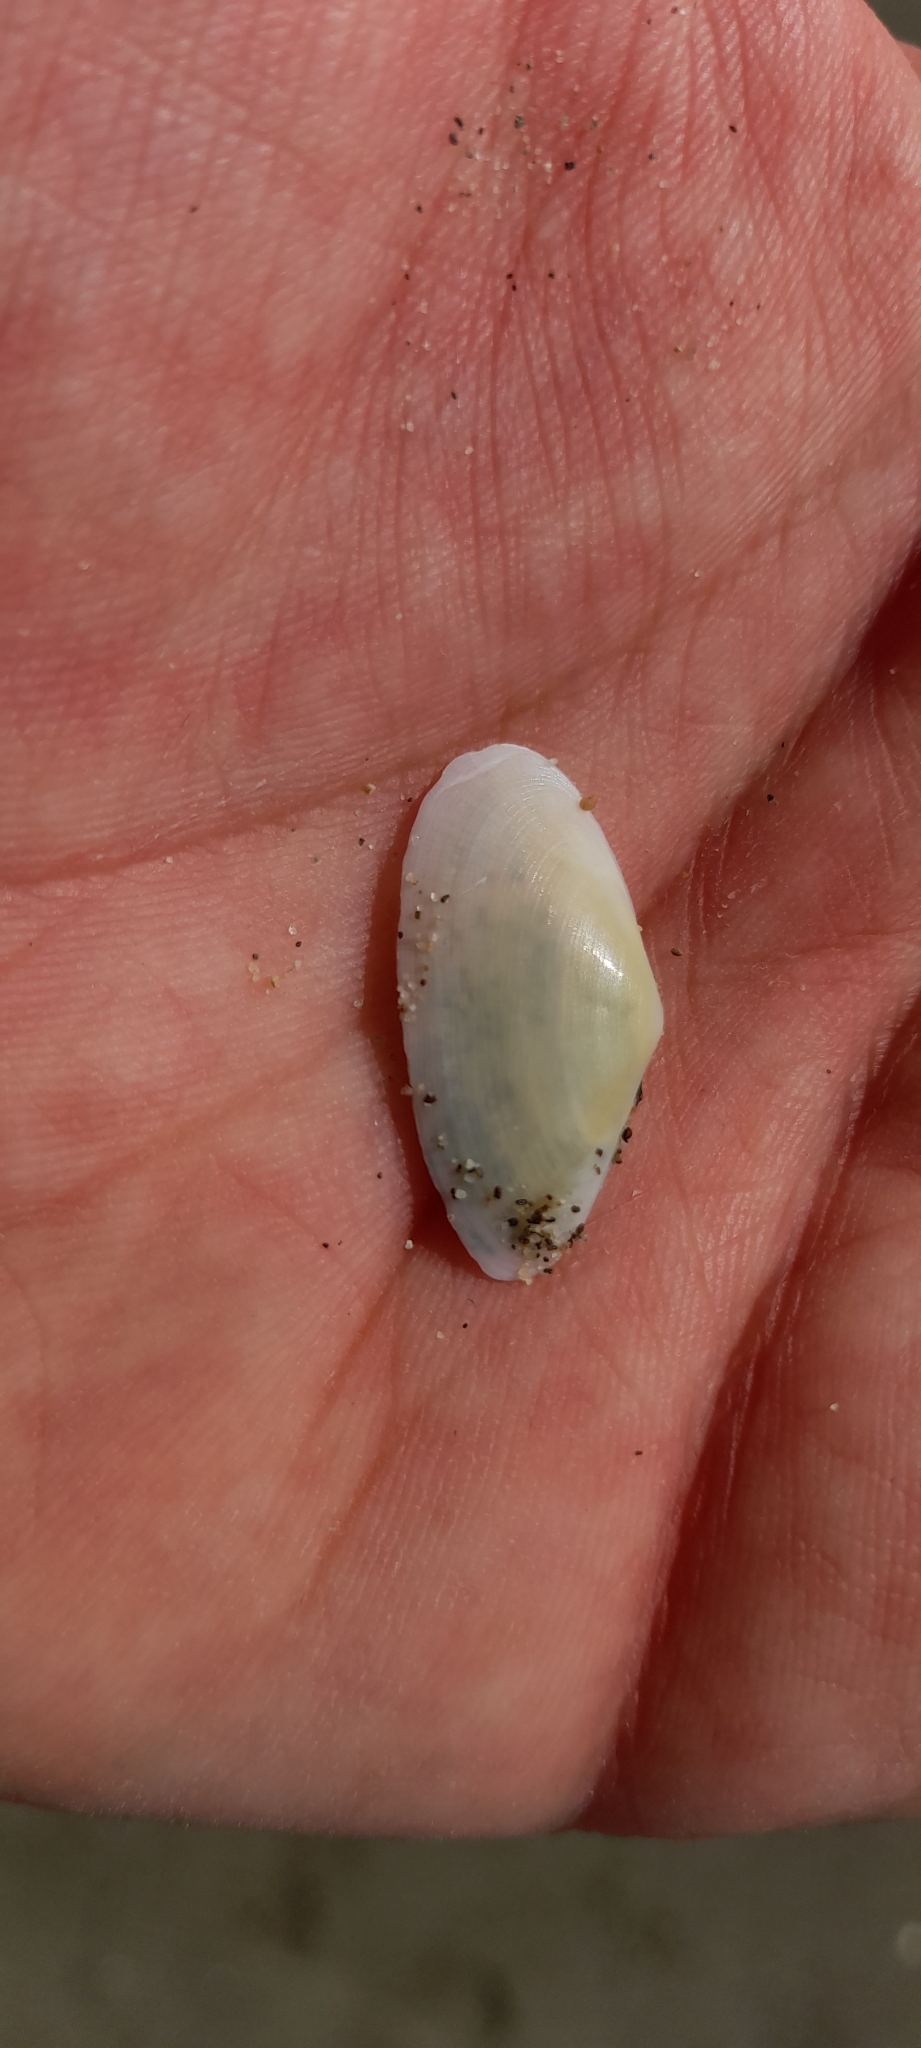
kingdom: Animalia
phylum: Mollusca
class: Bivalvia
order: Cardiida
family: Tellinidae
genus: Peronidia
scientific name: Peronidia albicans
